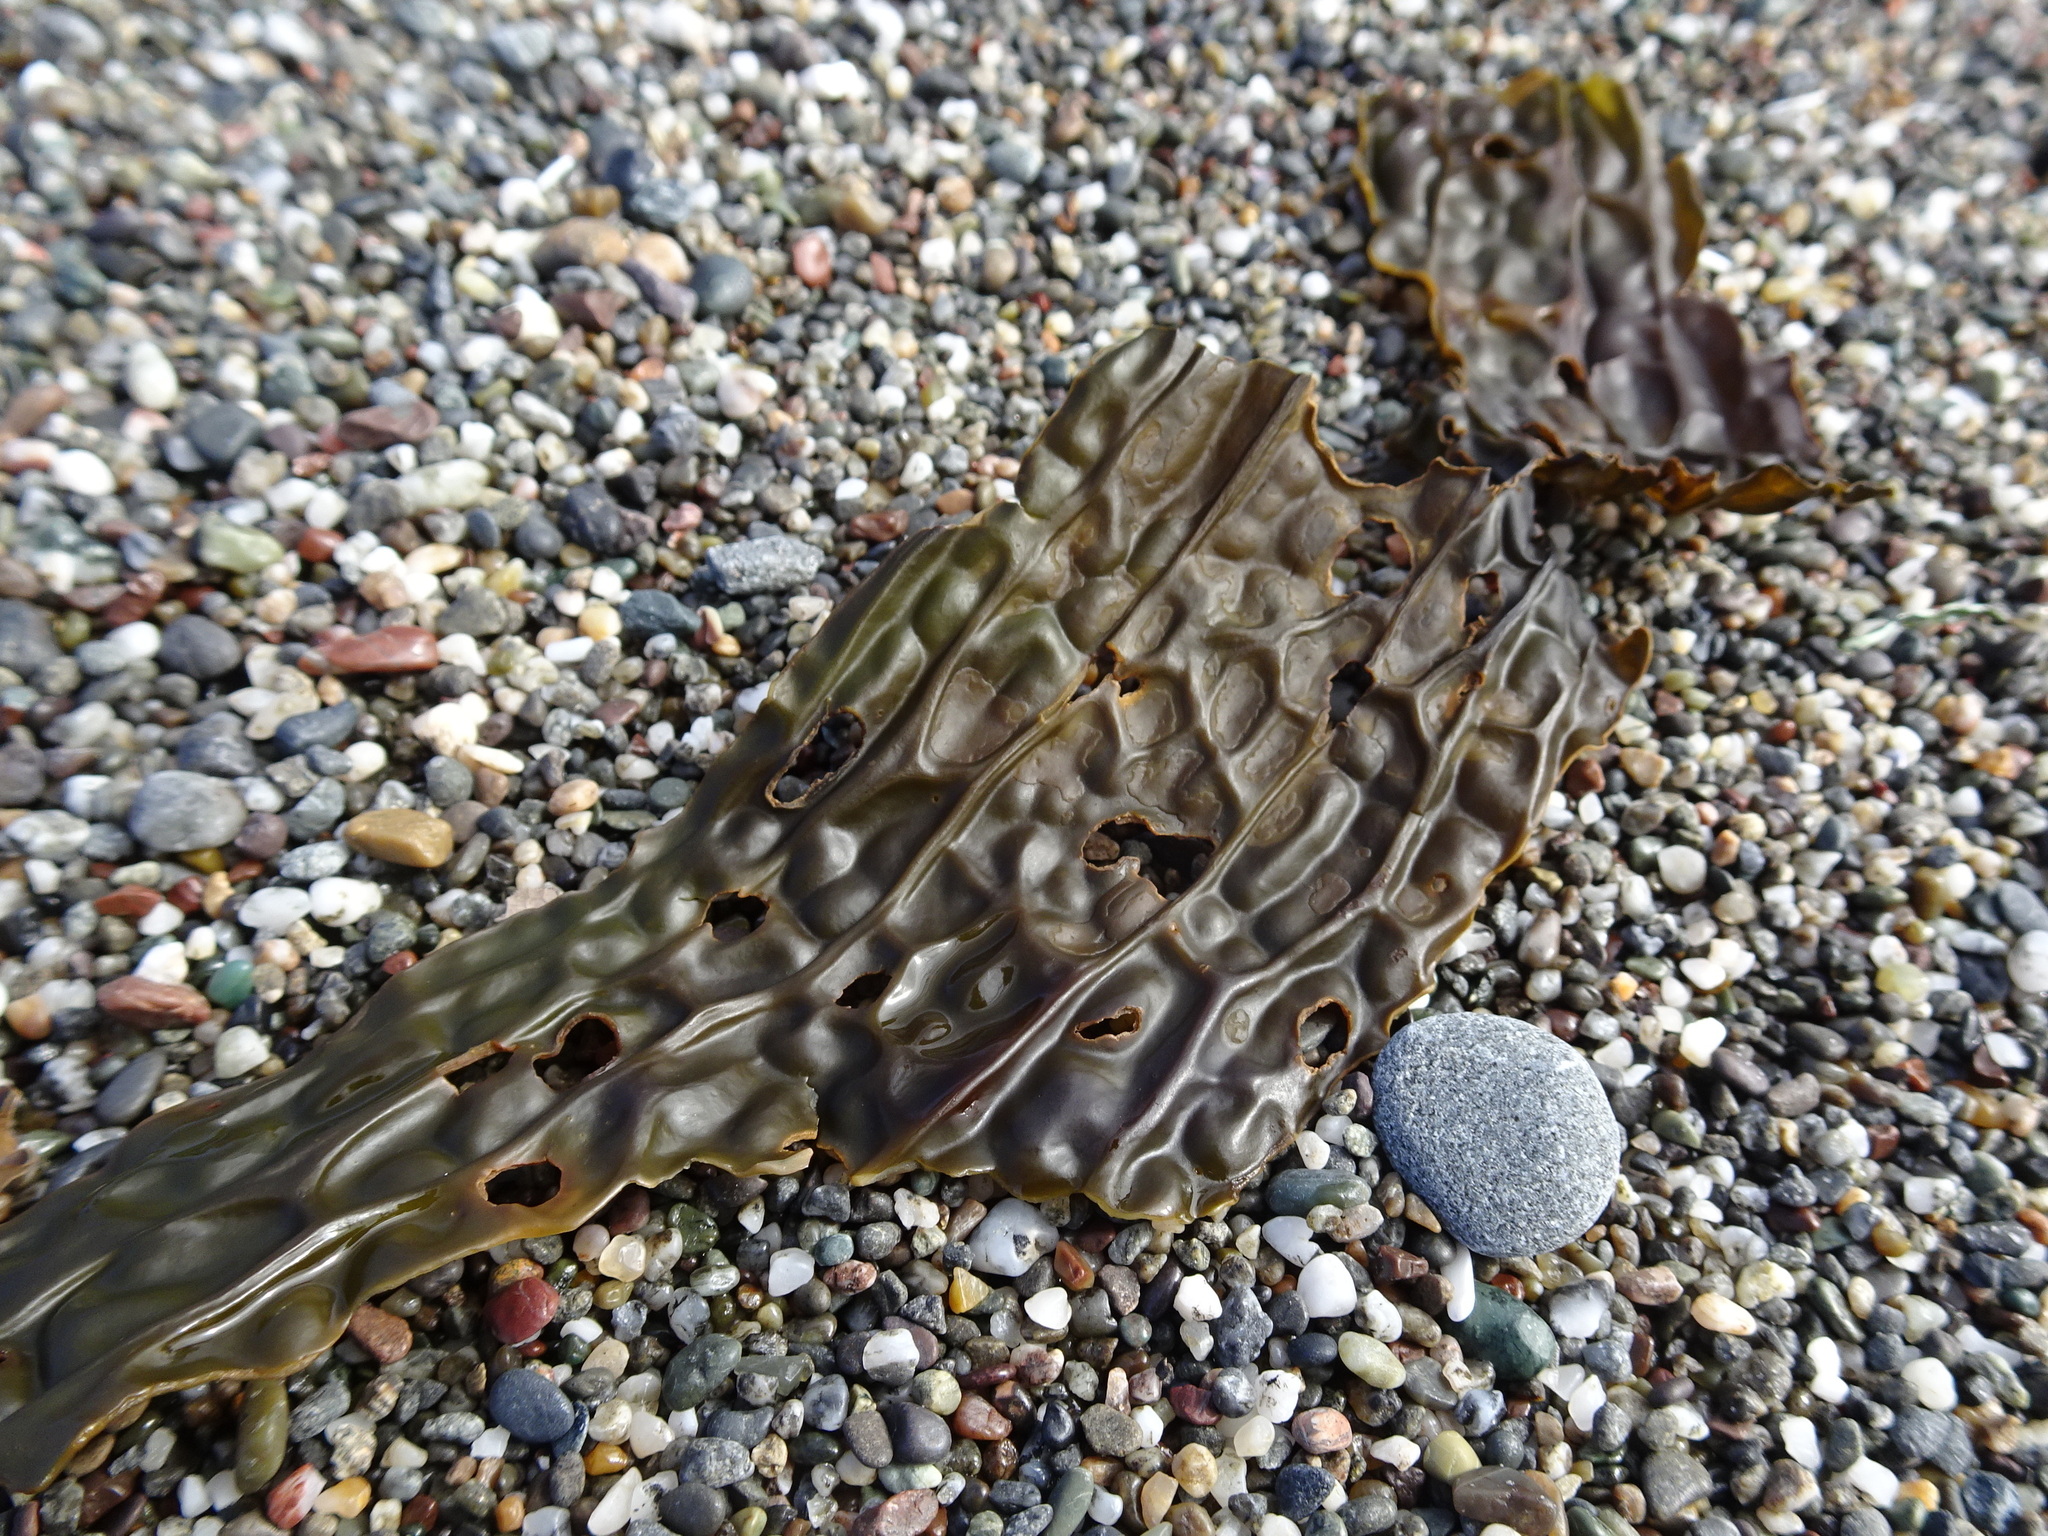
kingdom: Chromista
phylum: Ochrophyta
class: Phaeophyceae
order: Laminariales
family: Costariaceae
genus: Dictyoneurum
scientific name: Dictyoneurum californicum
